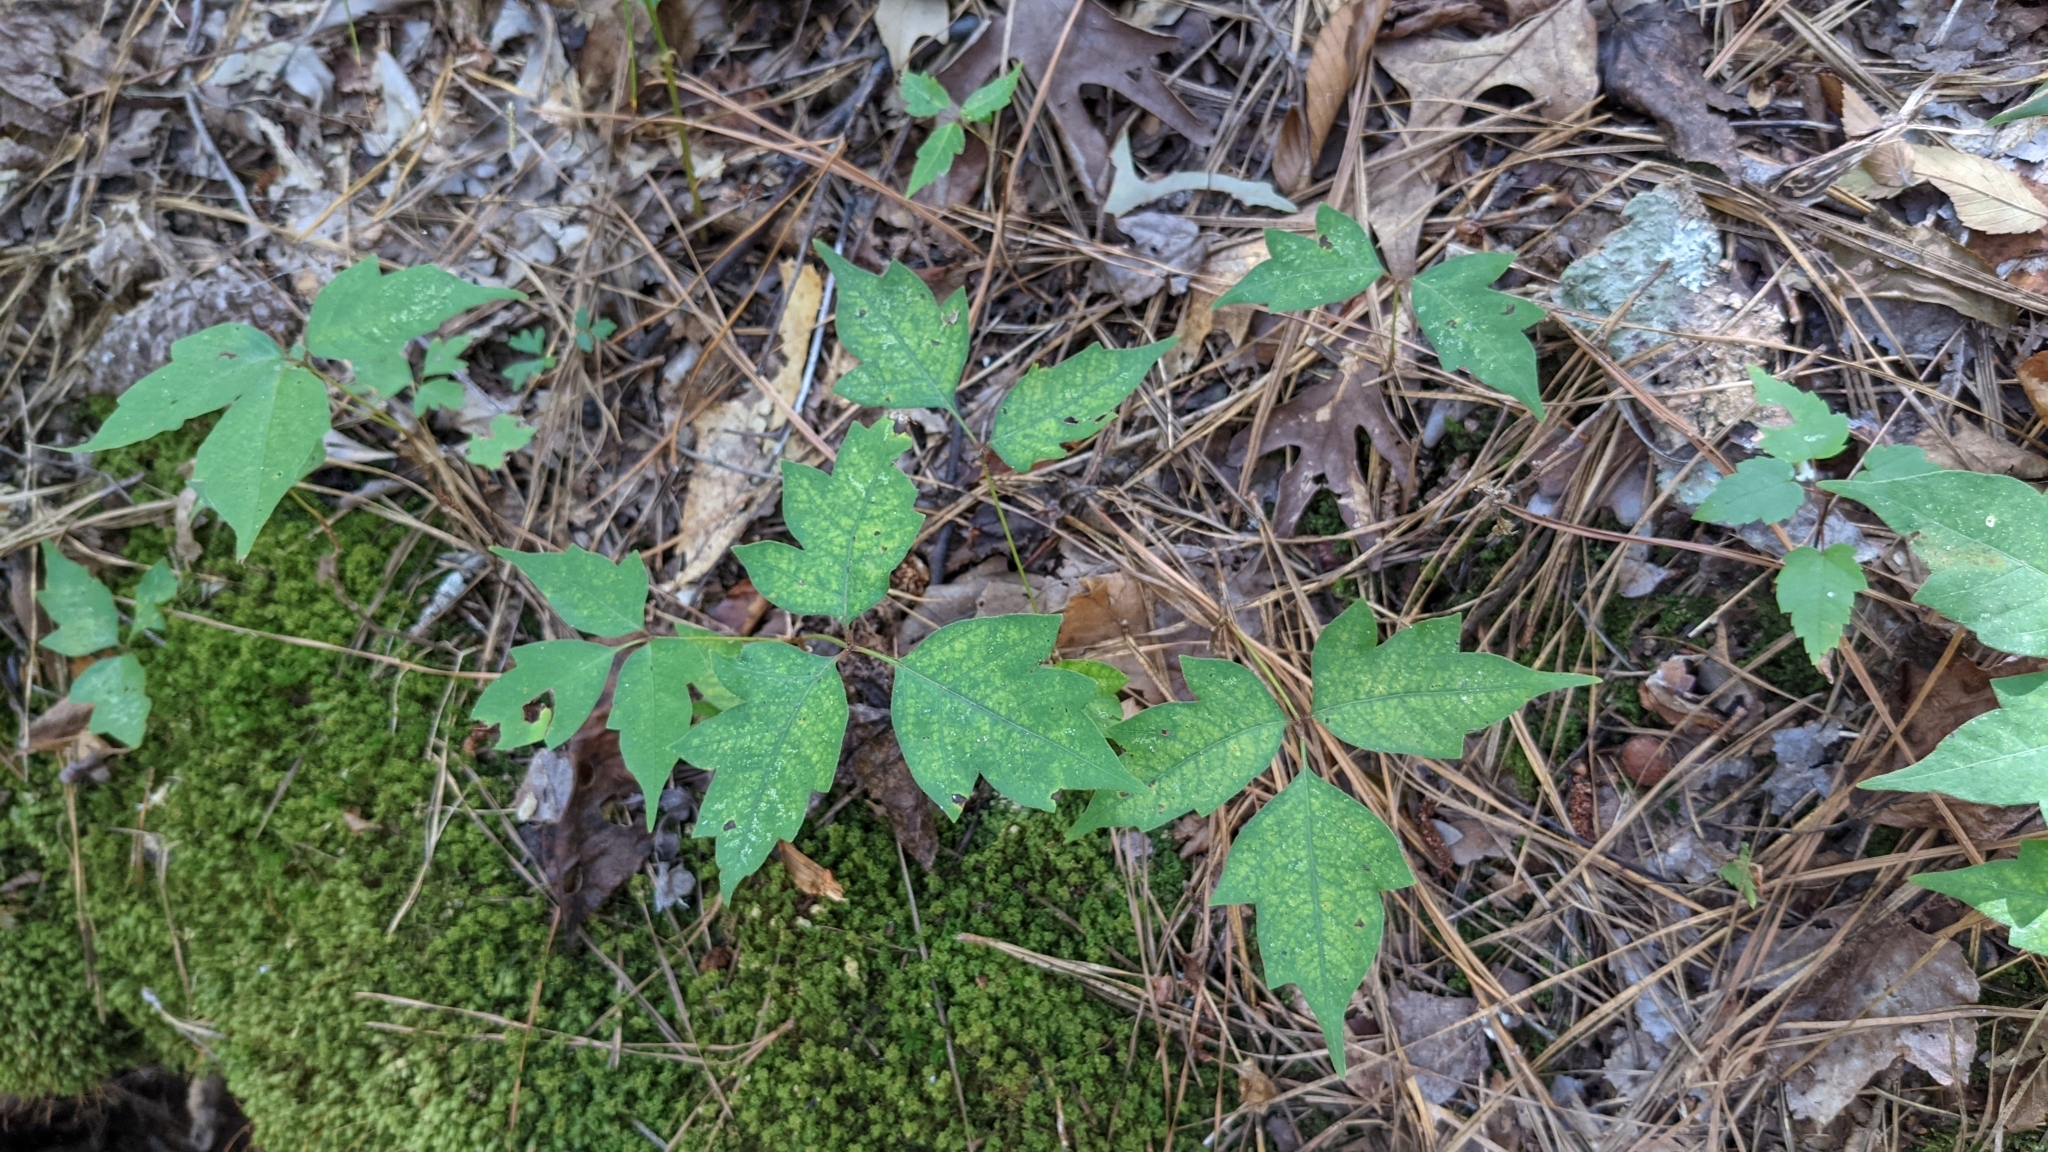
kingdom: Plantae
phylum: Tracheophyta
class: Magnoliopsida
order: Sapindales
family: Anacardiaceae
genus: Toxicodendron
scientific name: Toxicodendron radicans
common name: Poison ivy
